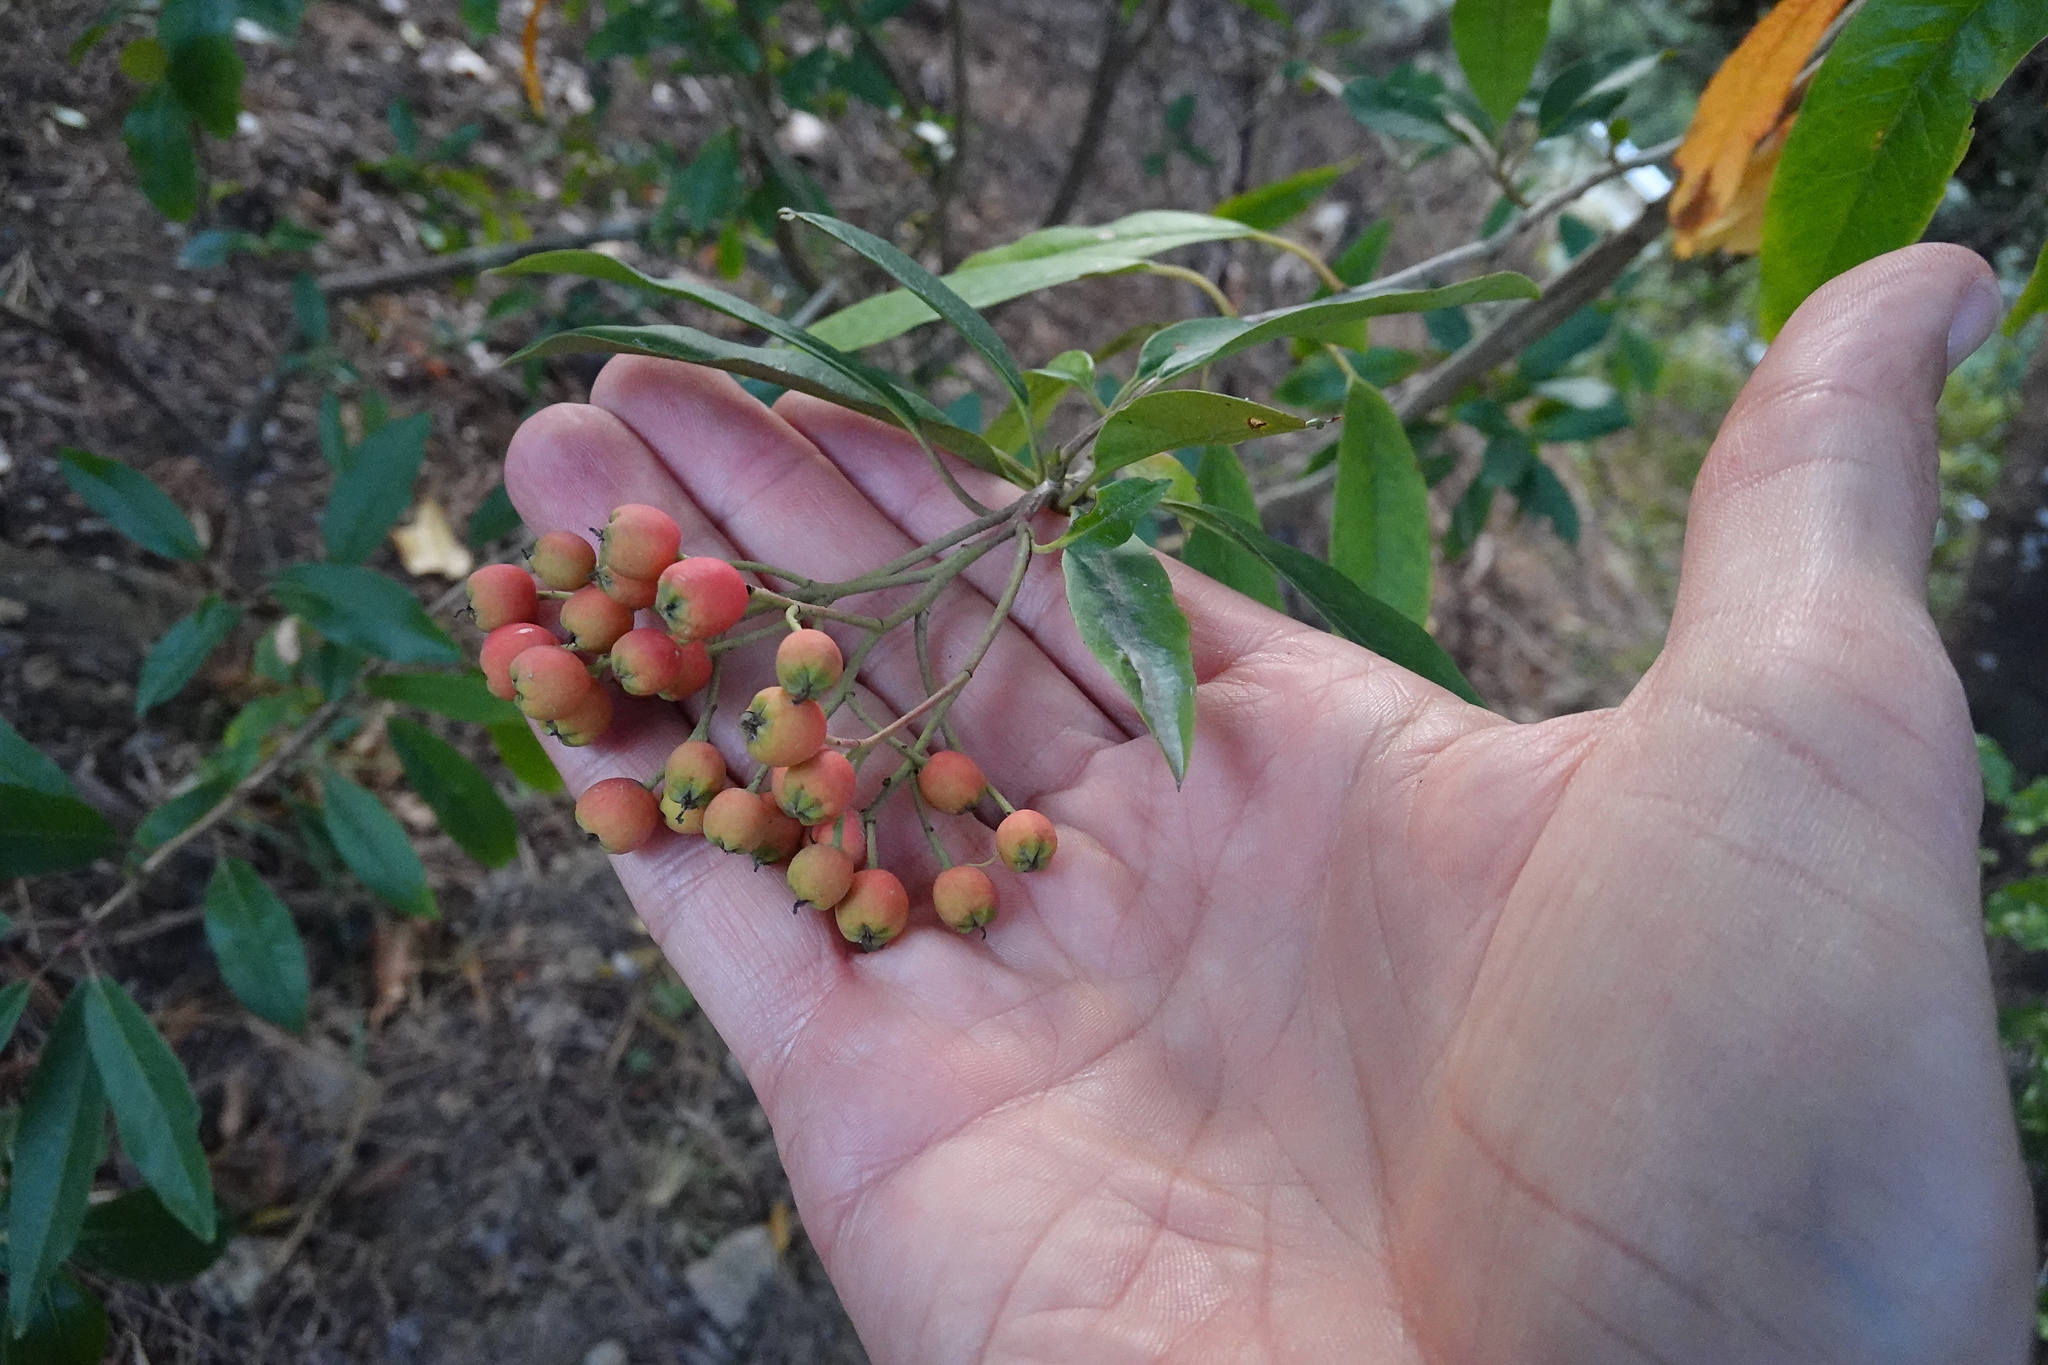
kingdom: Plantae
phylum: Tracheophyta
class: Magnoliopsida
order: Rosales
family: Rosaceae
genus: Stranvaesia
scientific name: Stranvaesia davidiana
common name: Chinese photinia
